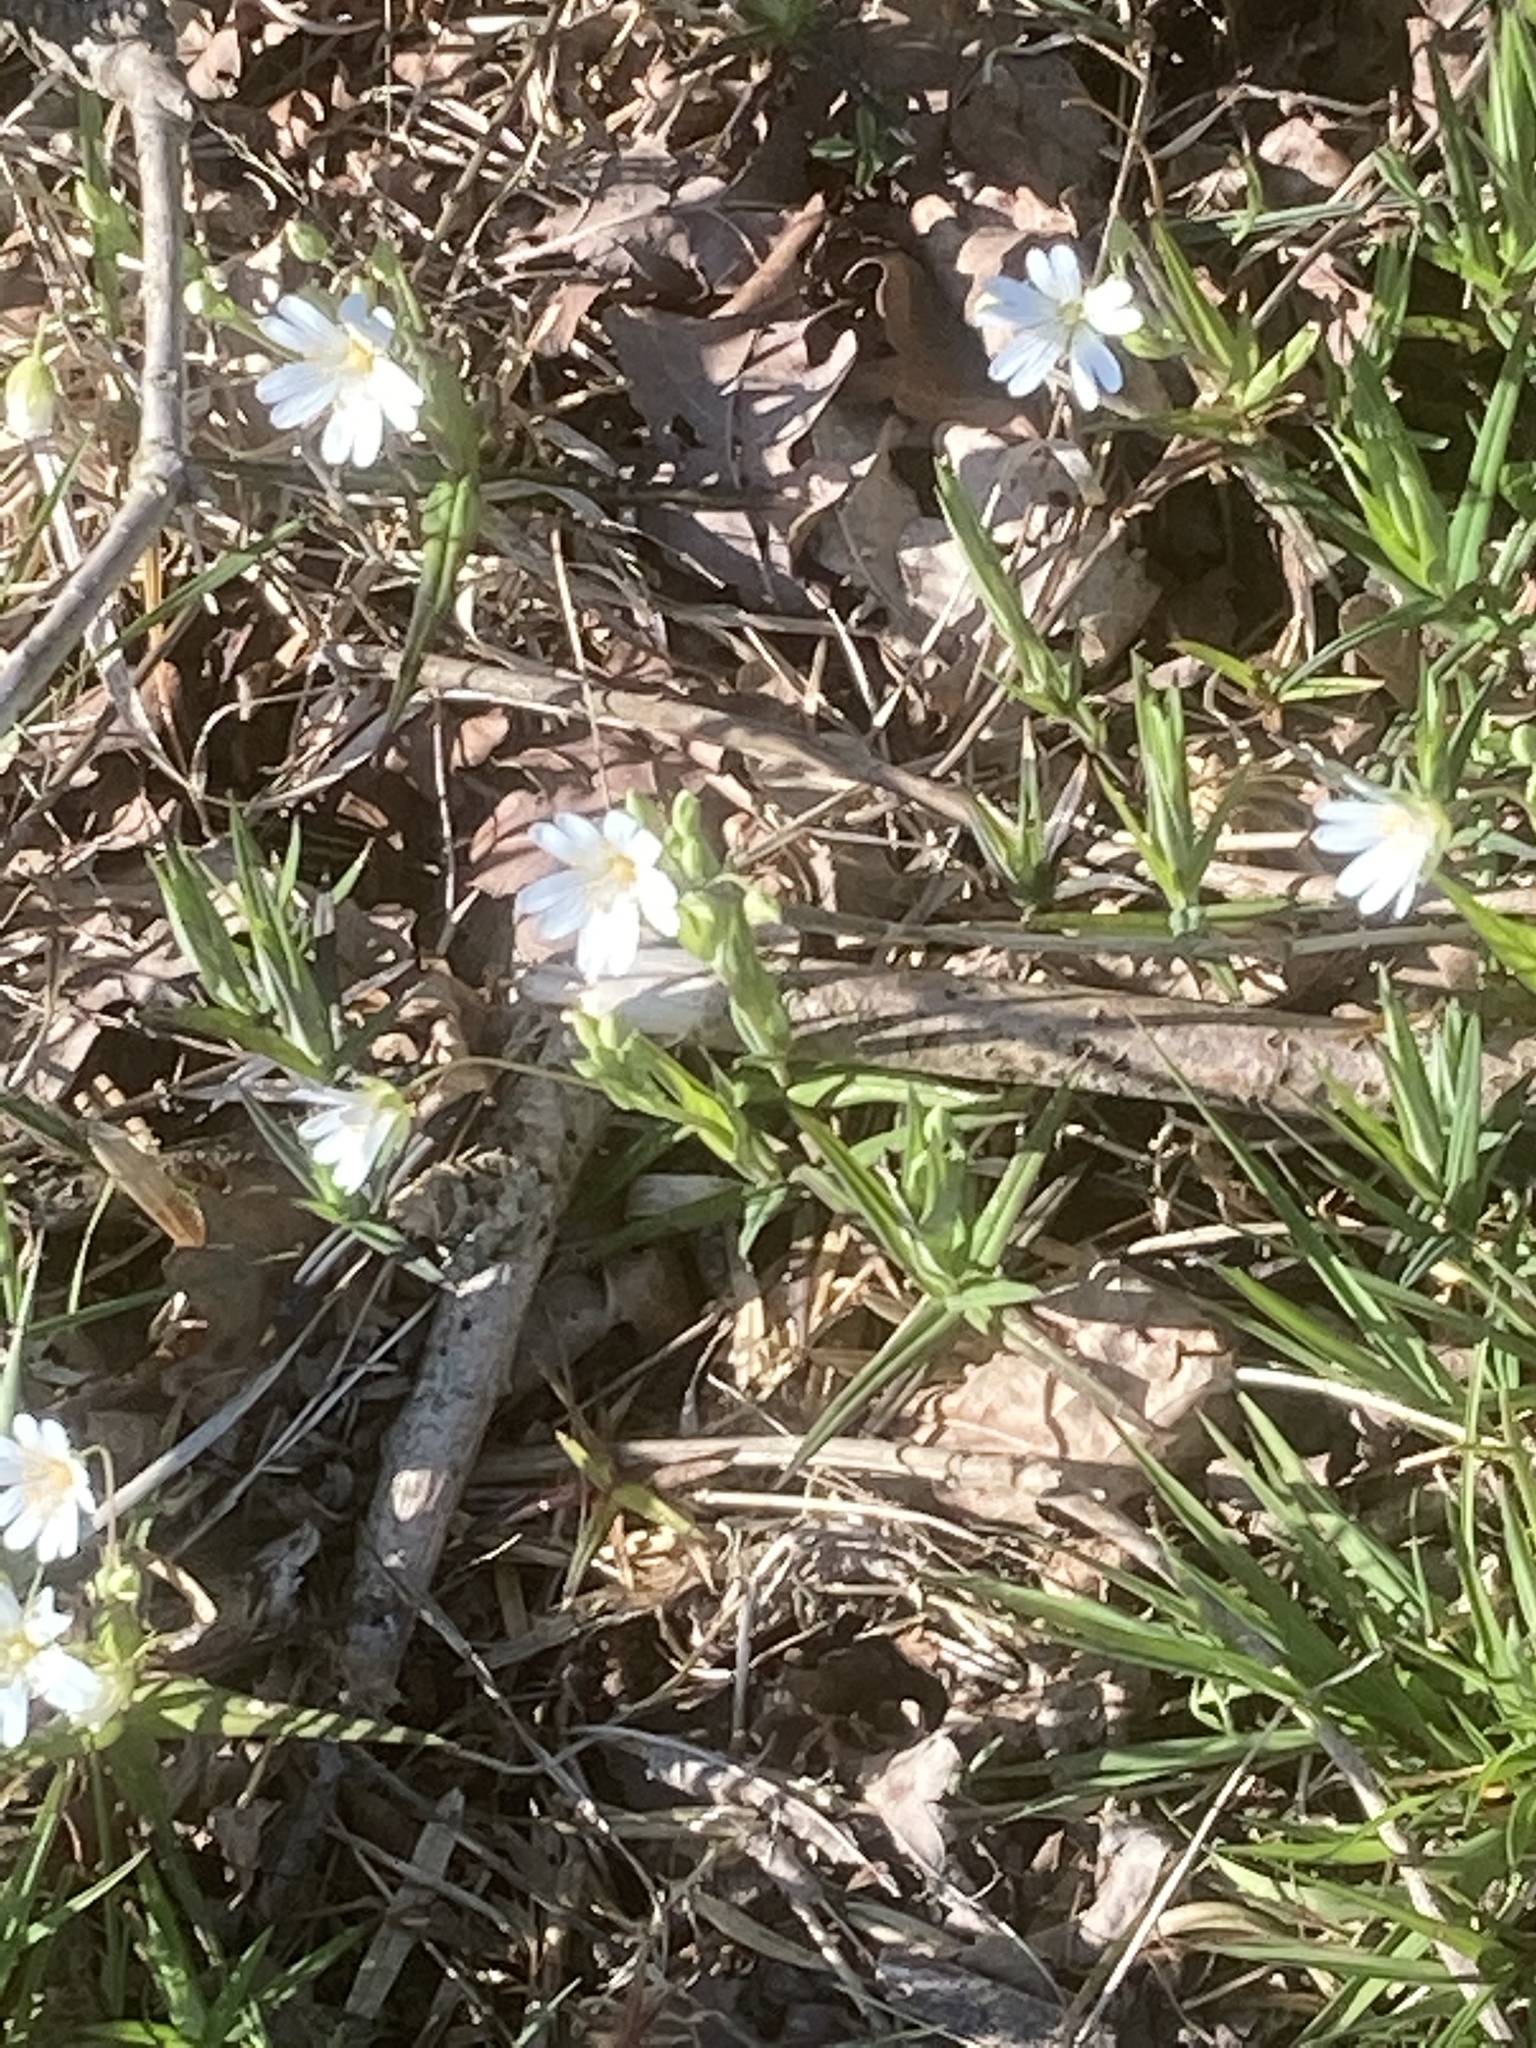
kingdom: Plantae
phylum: Tracheophyta
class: Magnoliopsida
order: Caryophyllales
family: Caryophyllaceae
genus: Rabelera
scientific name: Rabelera holostea
